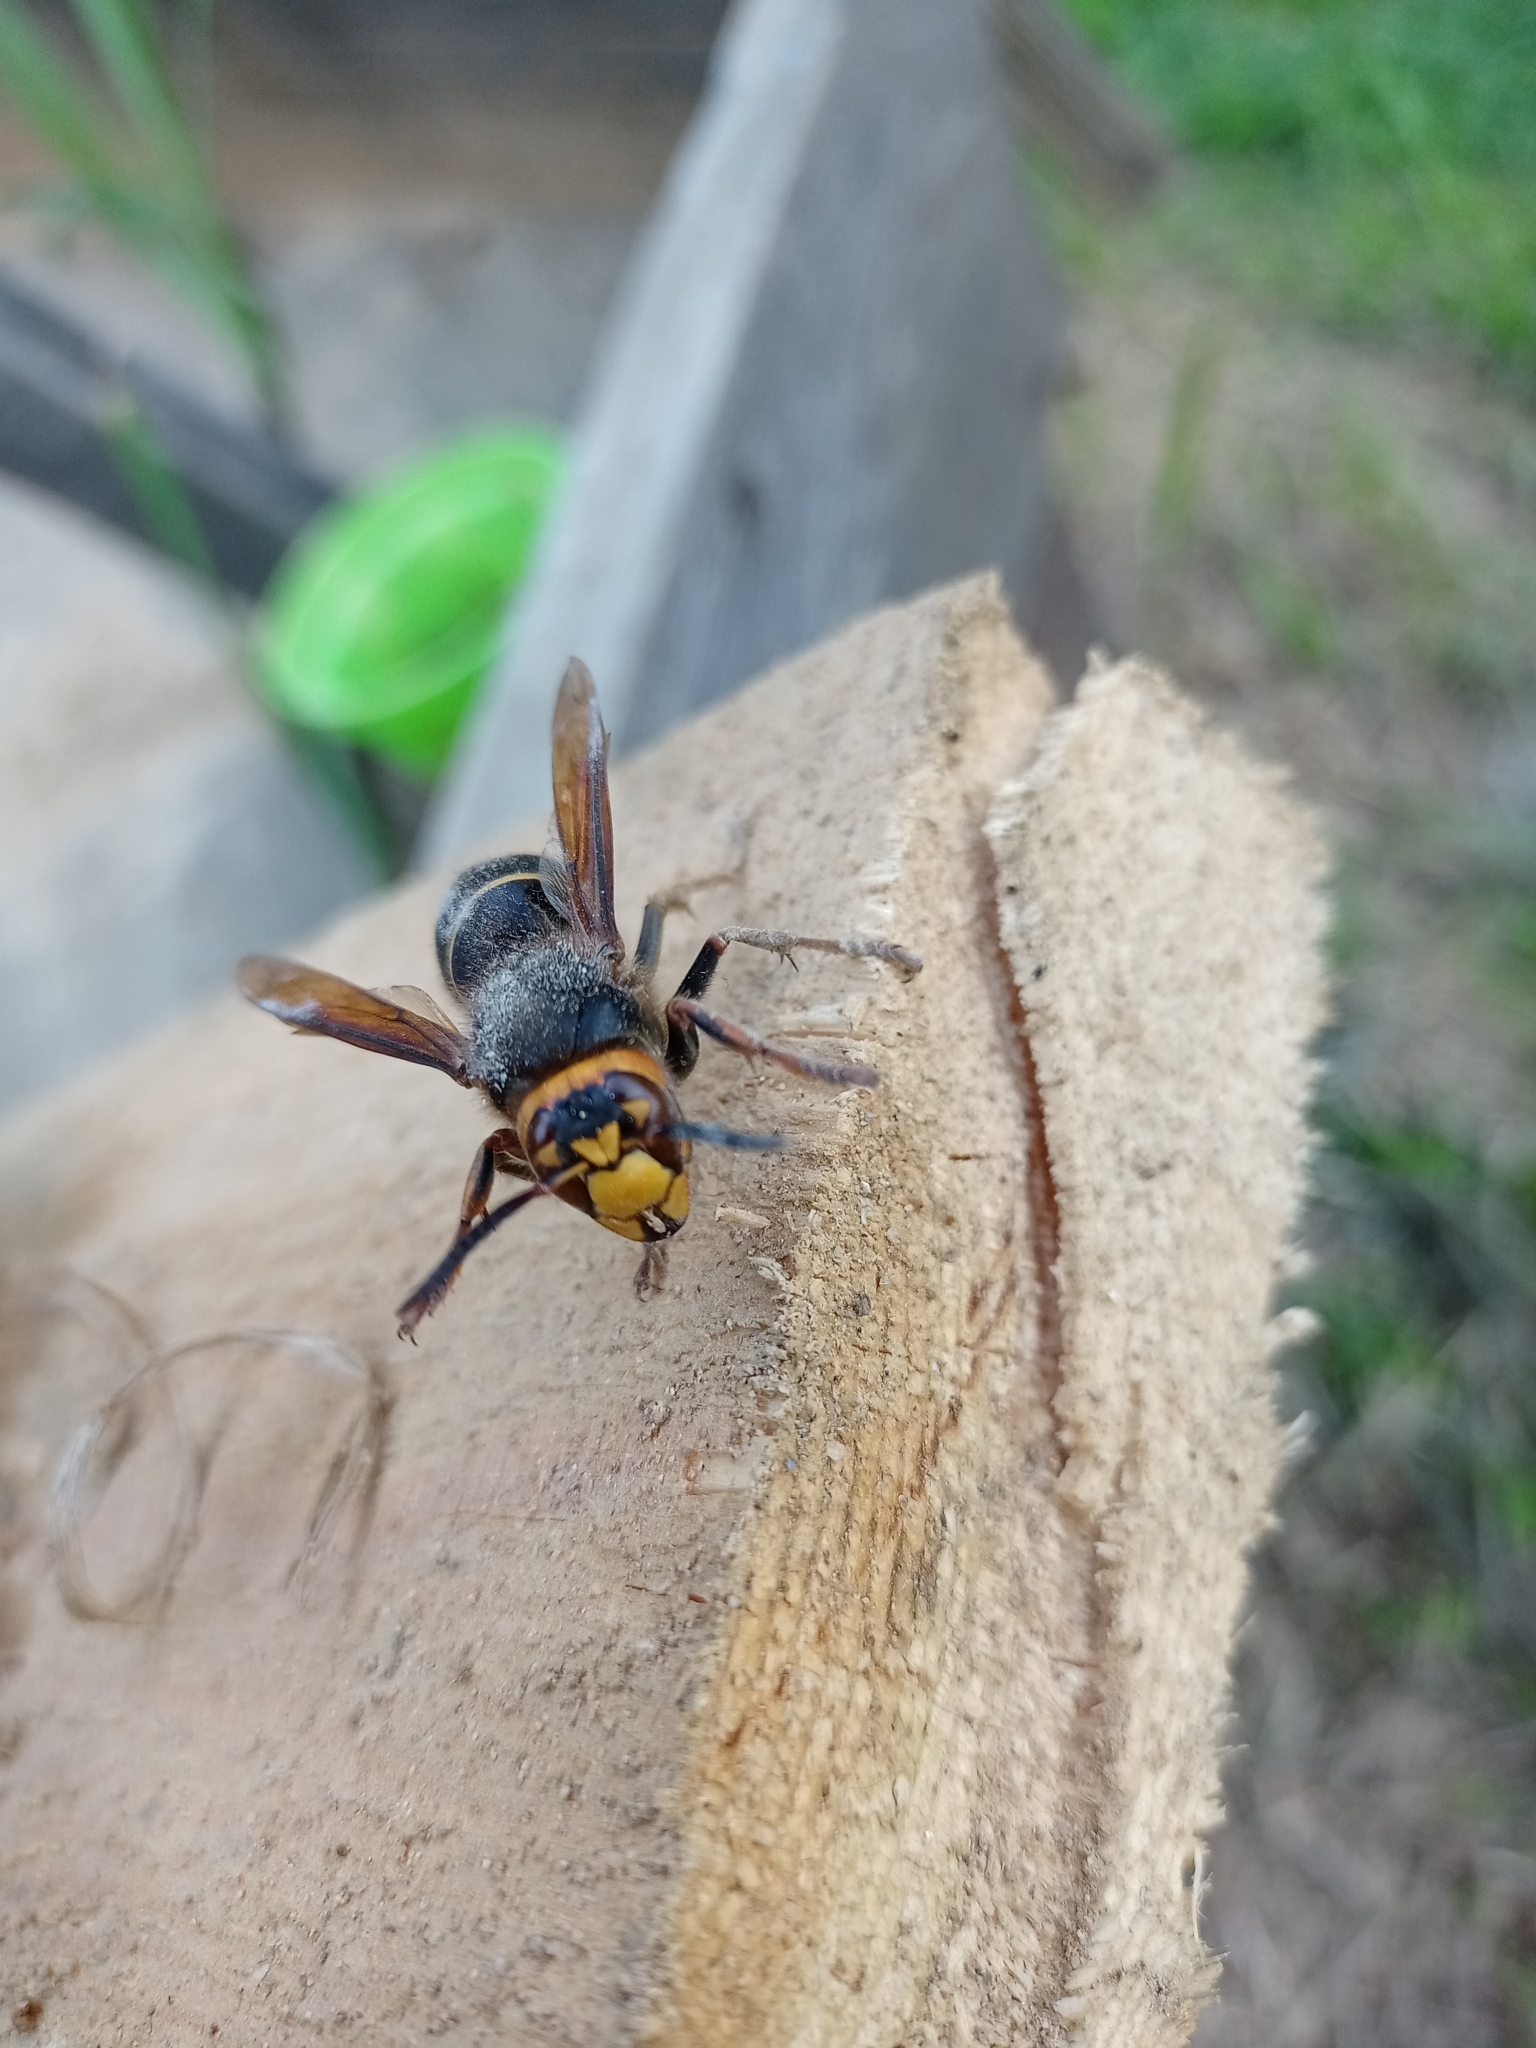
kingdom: Animalia
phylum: Arthropoda
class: Insecta
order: Hymenoptera
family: Vespidae
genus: Vespa
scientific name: Vespa crabro
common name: Hornet
